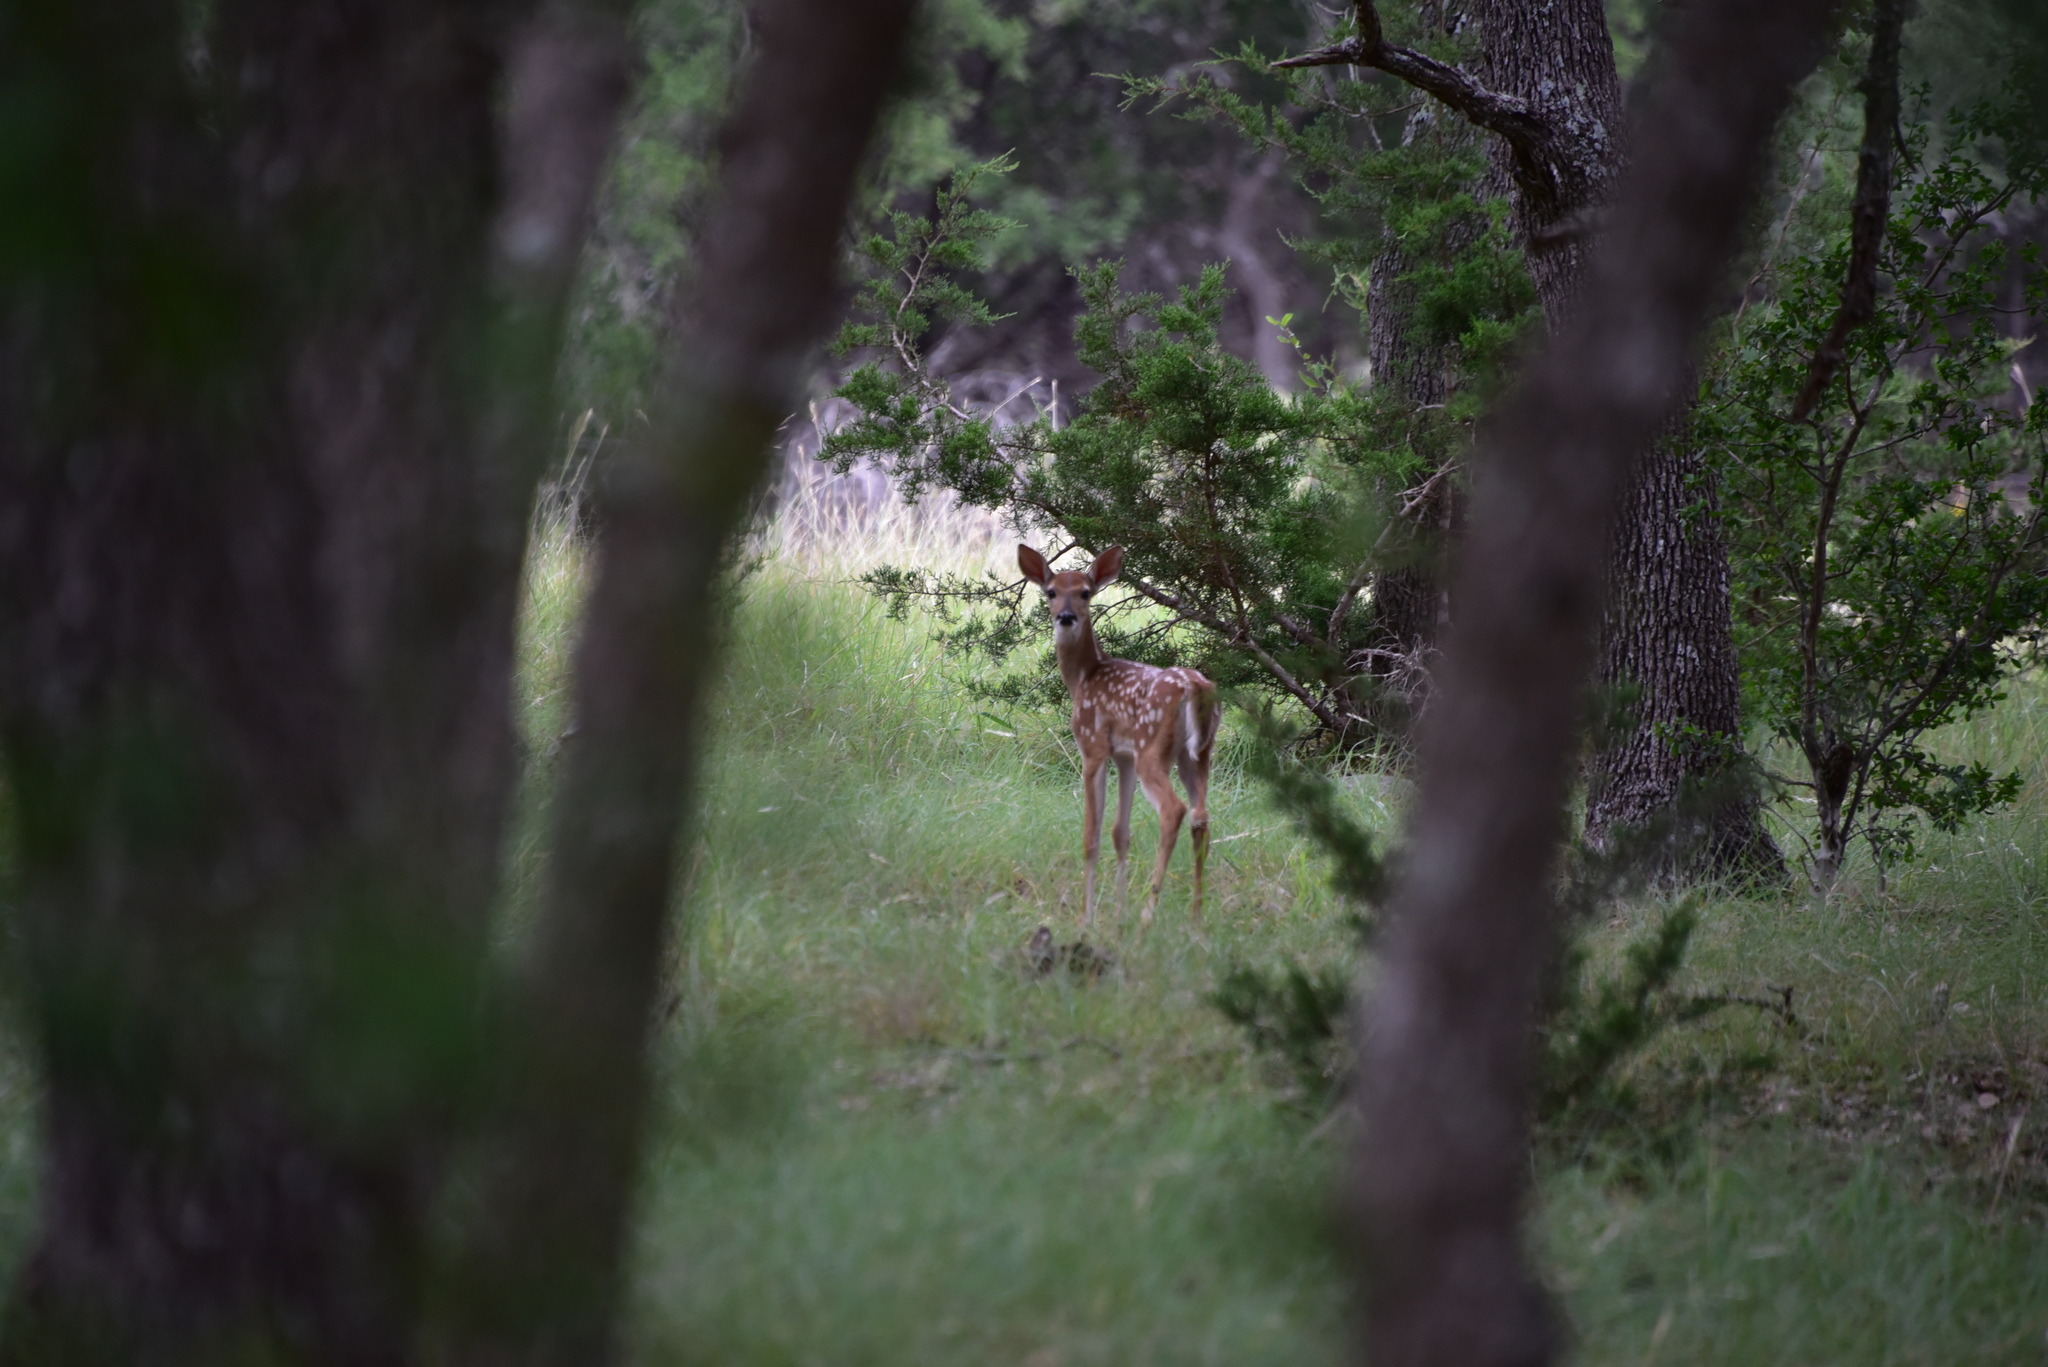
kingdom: Animalia
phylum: Chordata
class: Mammalia
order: Artiodactyla
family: Cervidae
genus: Odocoileus
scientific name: Odocoileus virginianus
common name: White-tailed deer
